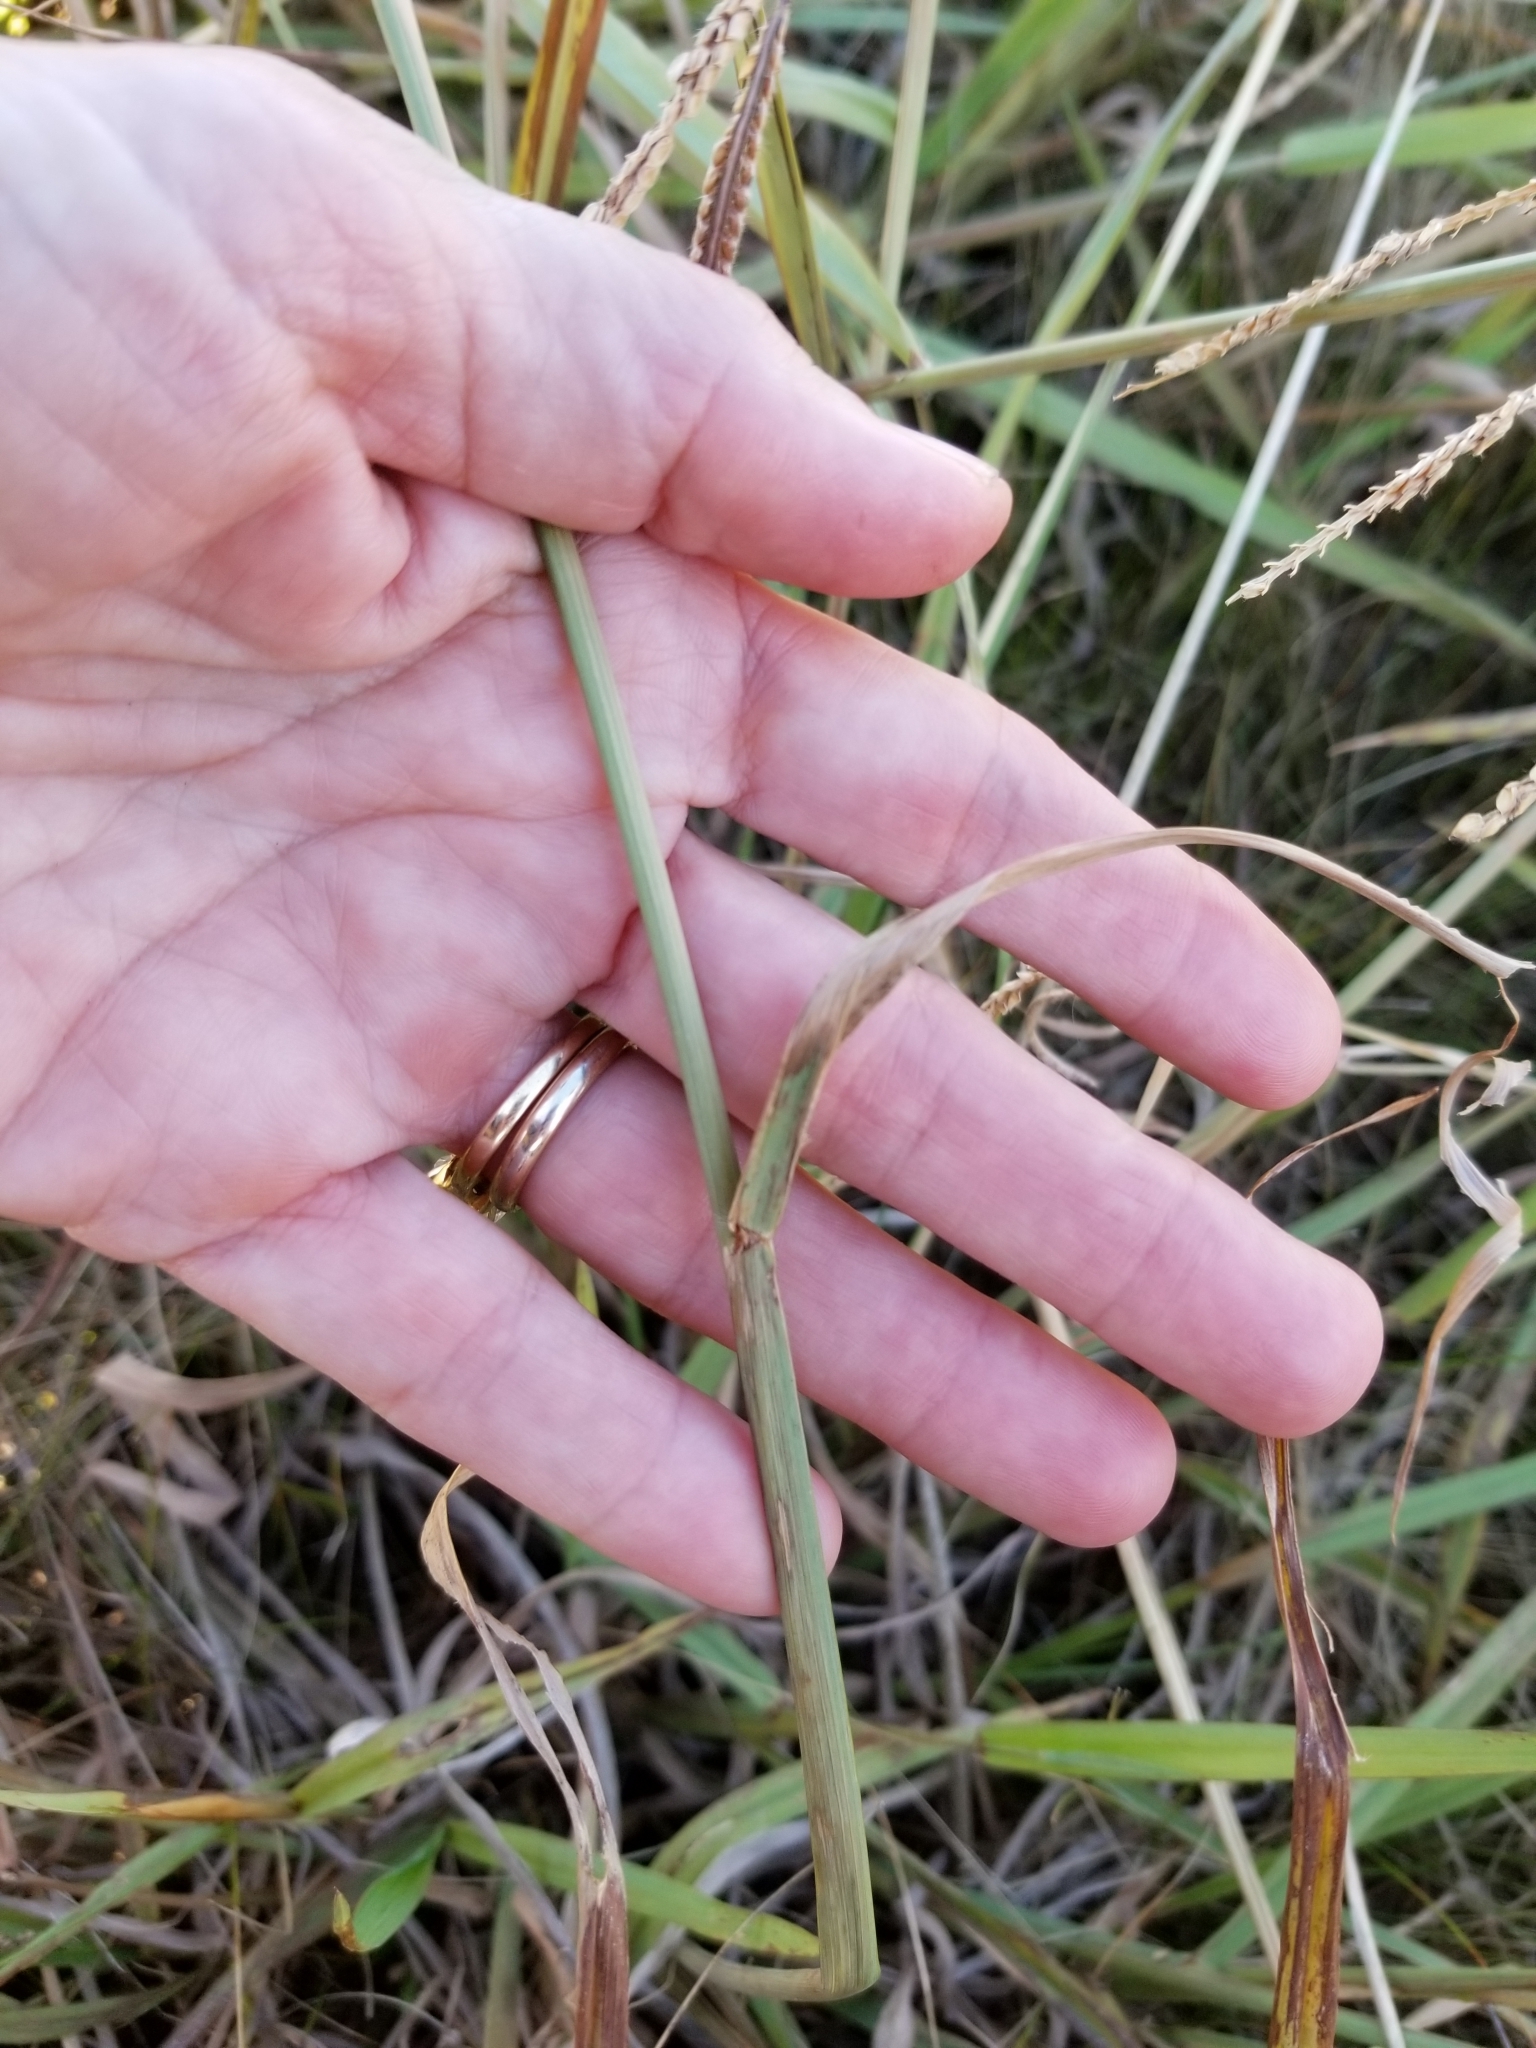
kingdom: Plantae
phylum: Tracheophyta
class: Liliopsida
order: Poales
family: Poaceae
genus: Paspalum
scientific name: Paspalum dilatatum
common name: Dallisgrass
